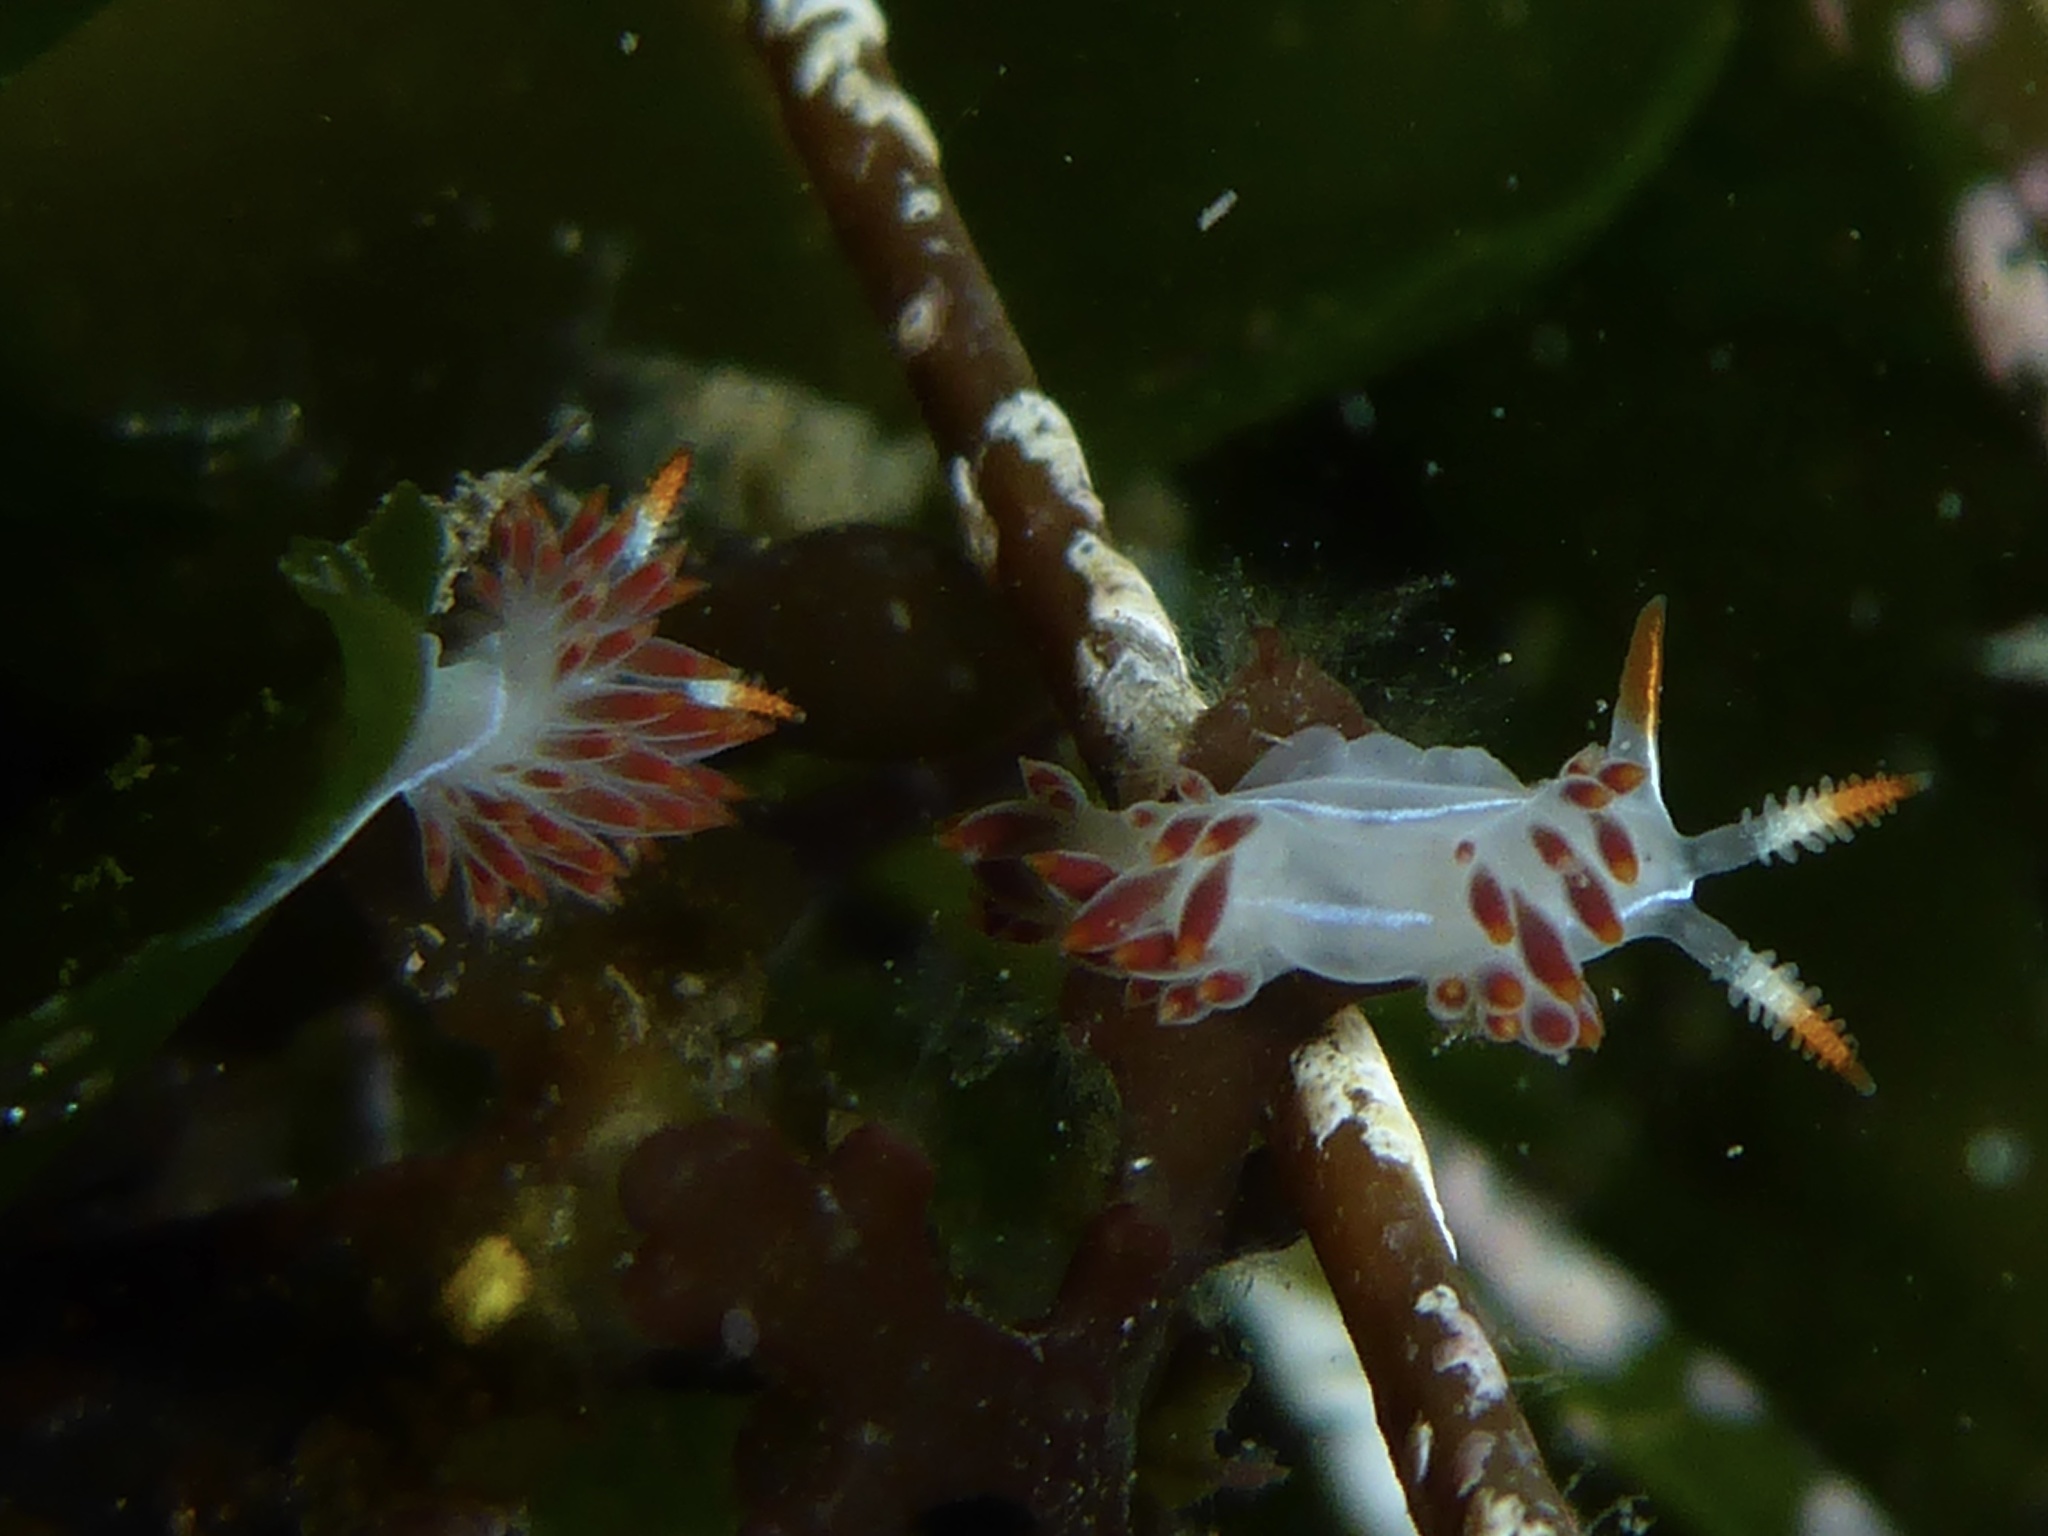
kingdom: Animalia
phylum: Mollusca
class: Gastropoda
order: Nudibranchia
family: Coryphellidae
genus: Coryphella
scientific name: Coryphella trilineata
